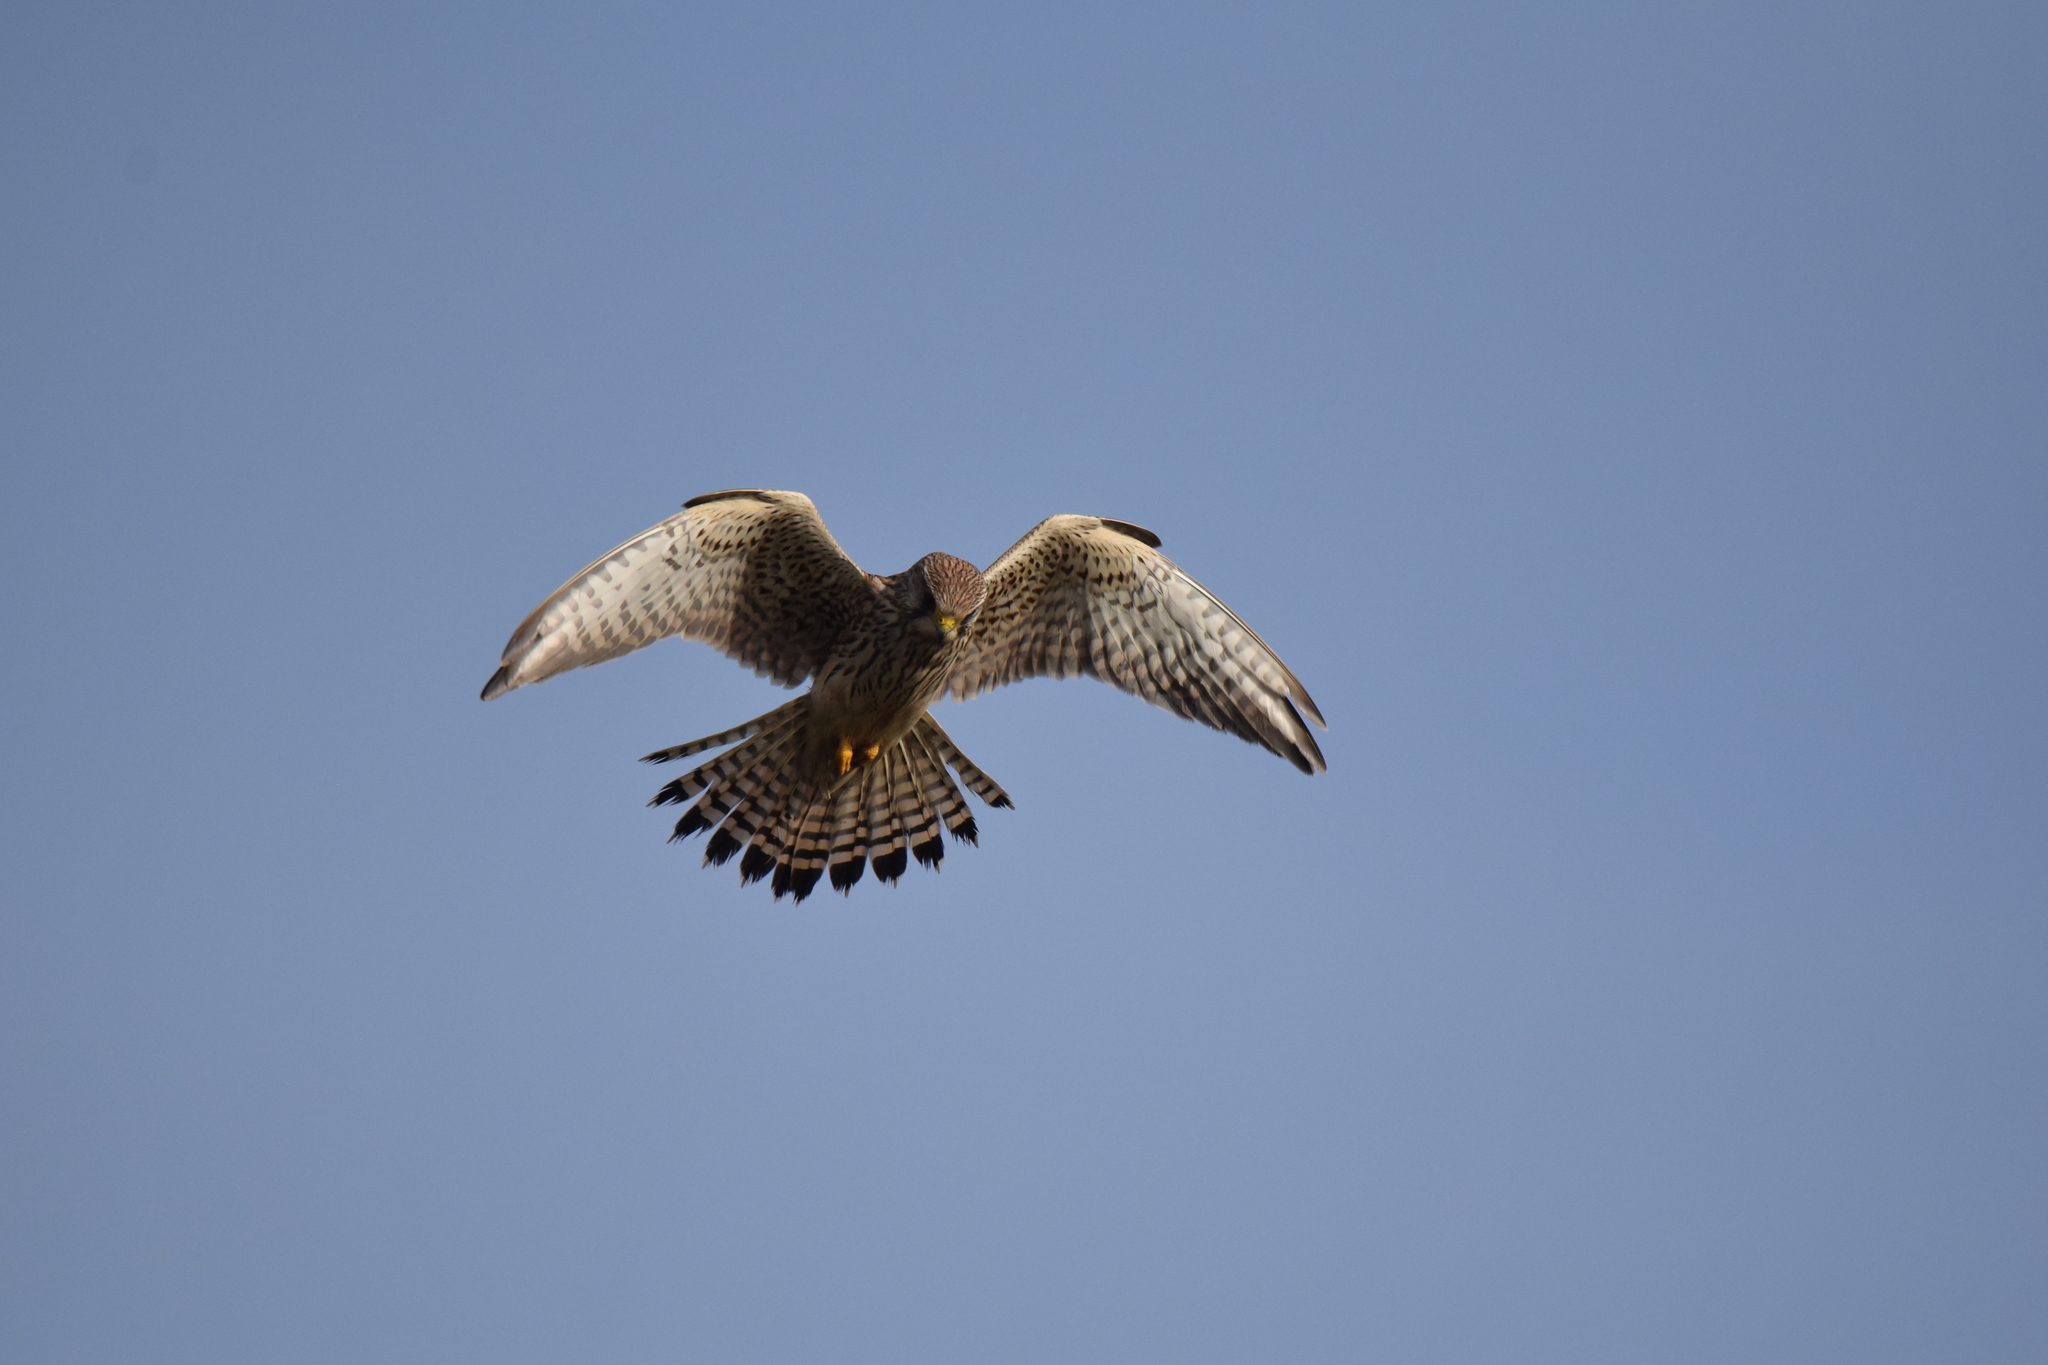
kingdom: Animalia
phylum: Chordata
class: Aves
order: Falconiformes
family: Falconidae
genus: Falco
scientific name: Falco tinnunculus
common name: Common kestrel
